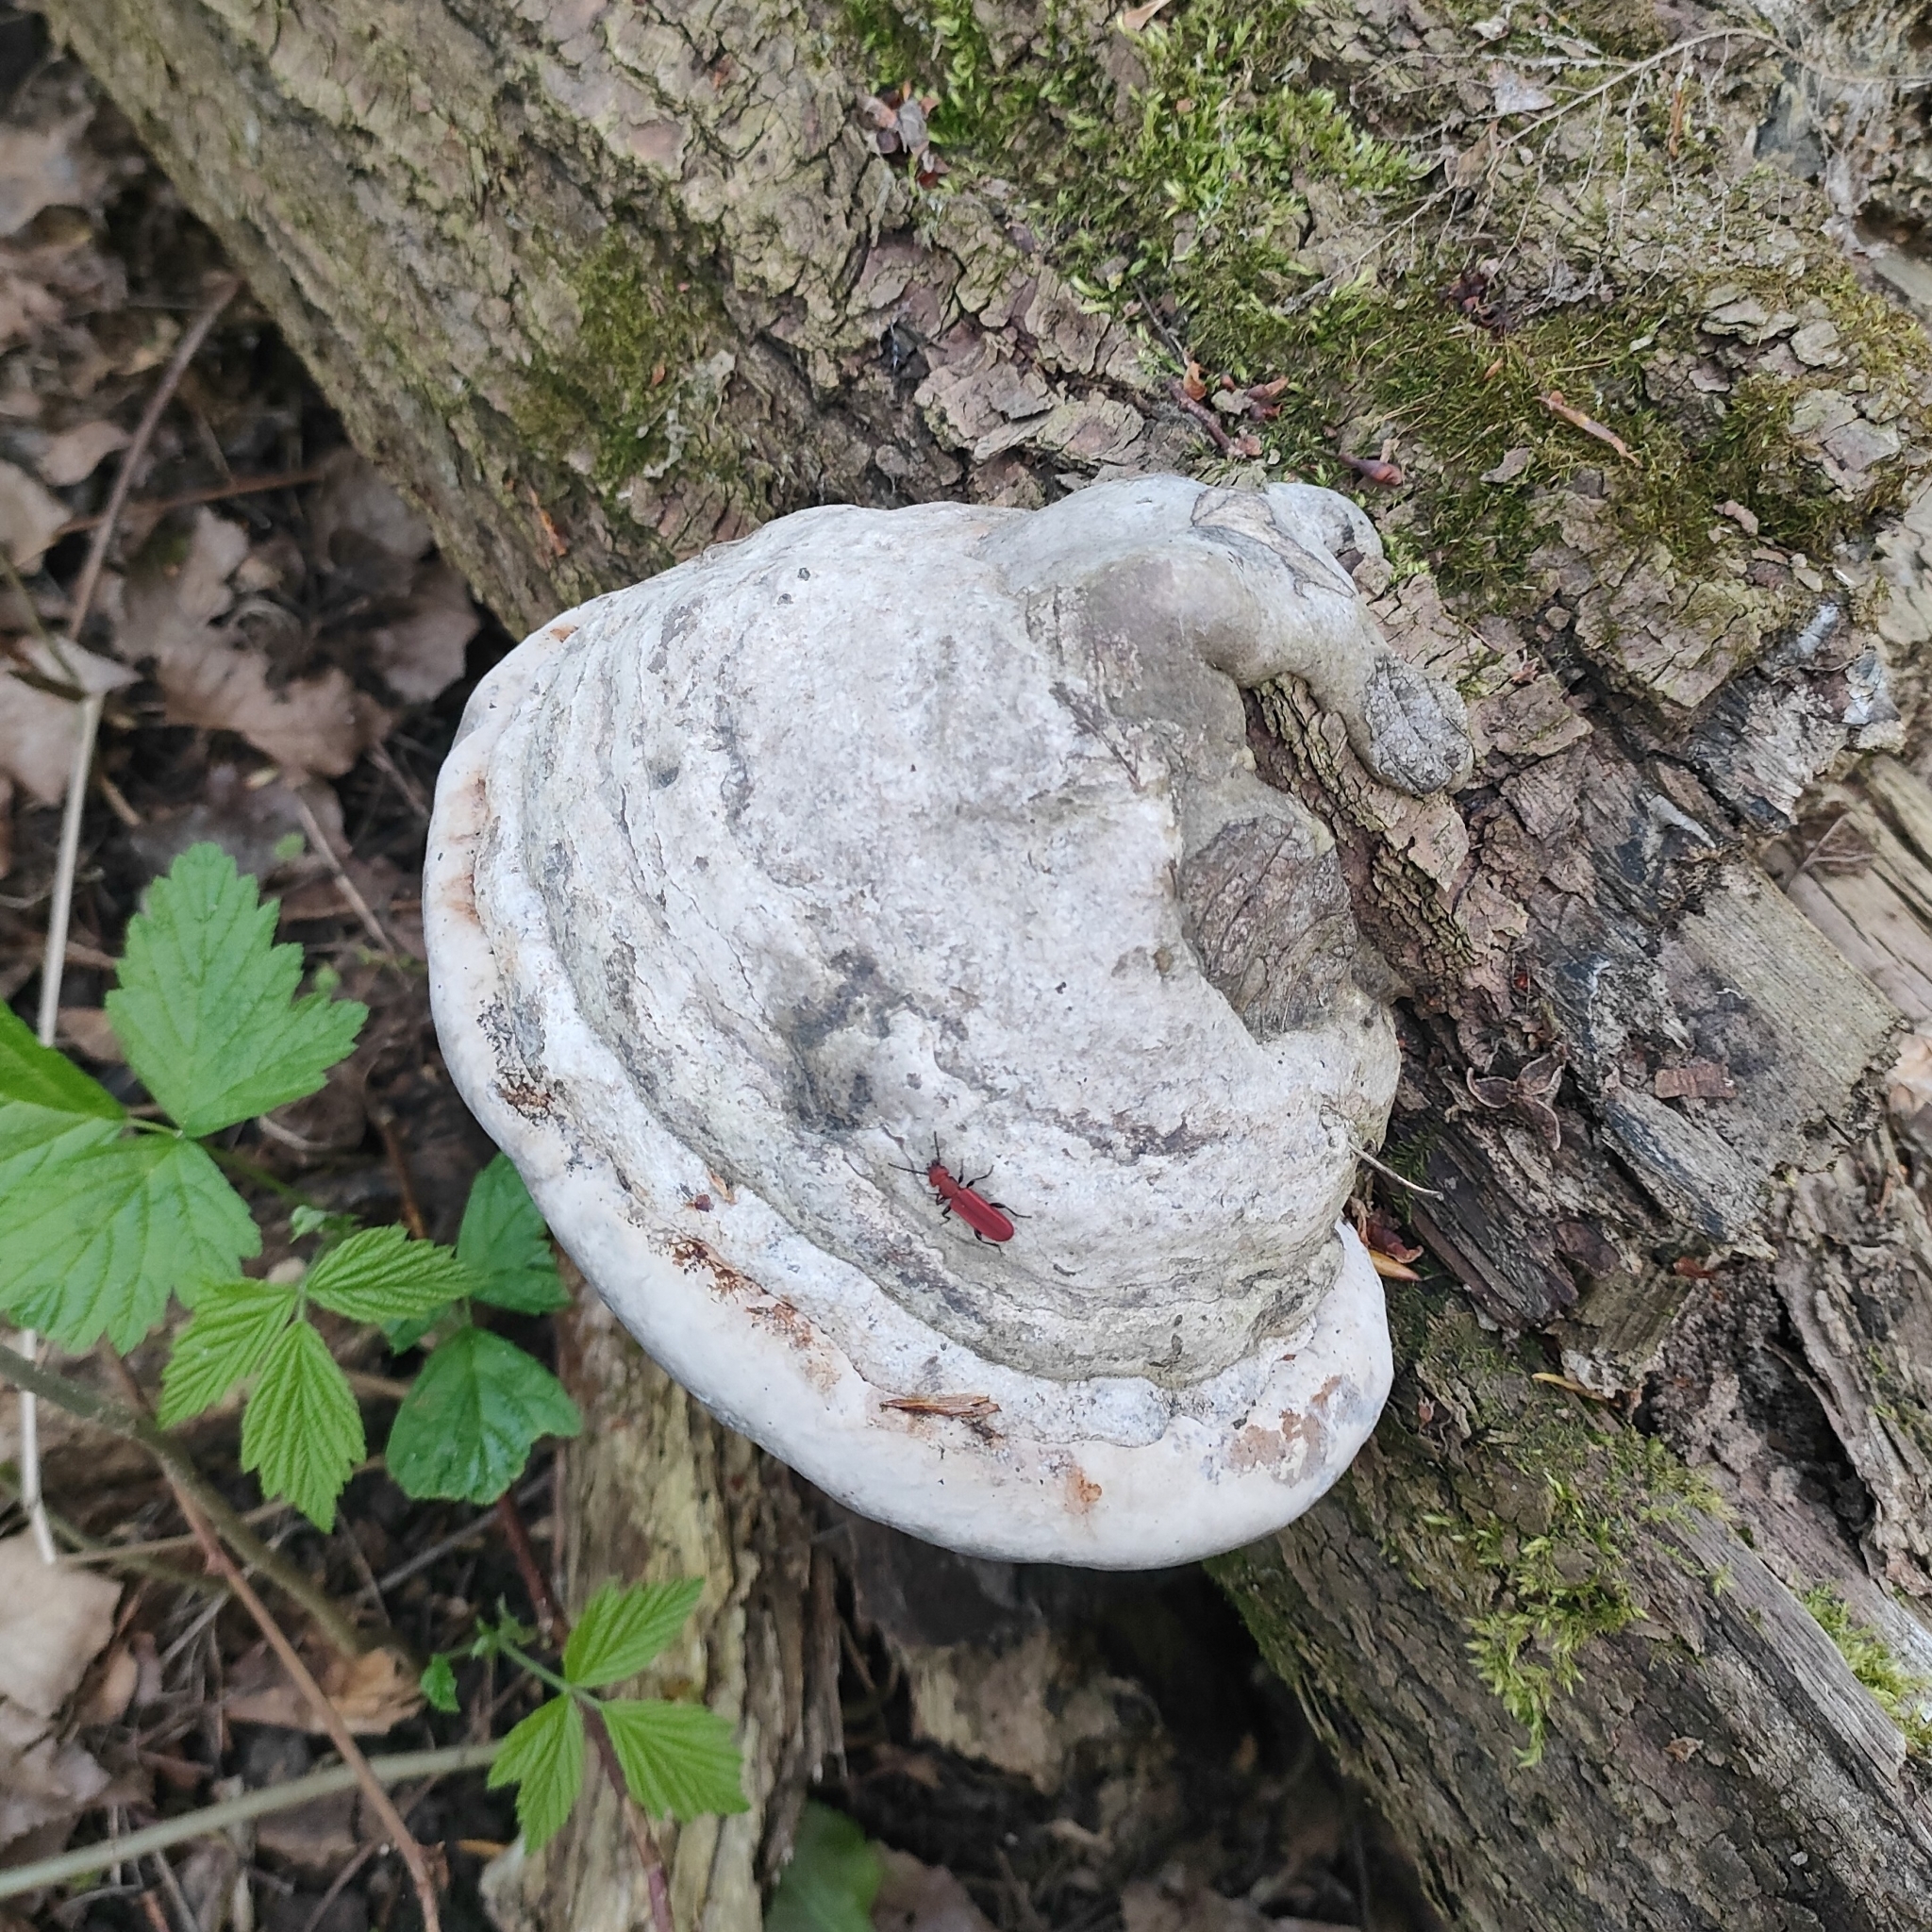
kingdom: Fungi
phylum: Basidiomycota
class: Agaricomycetes
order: Polyporales
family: Polyporaceae
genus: Fomes
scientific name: Fomes fomentarius
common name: Hoof fungus
